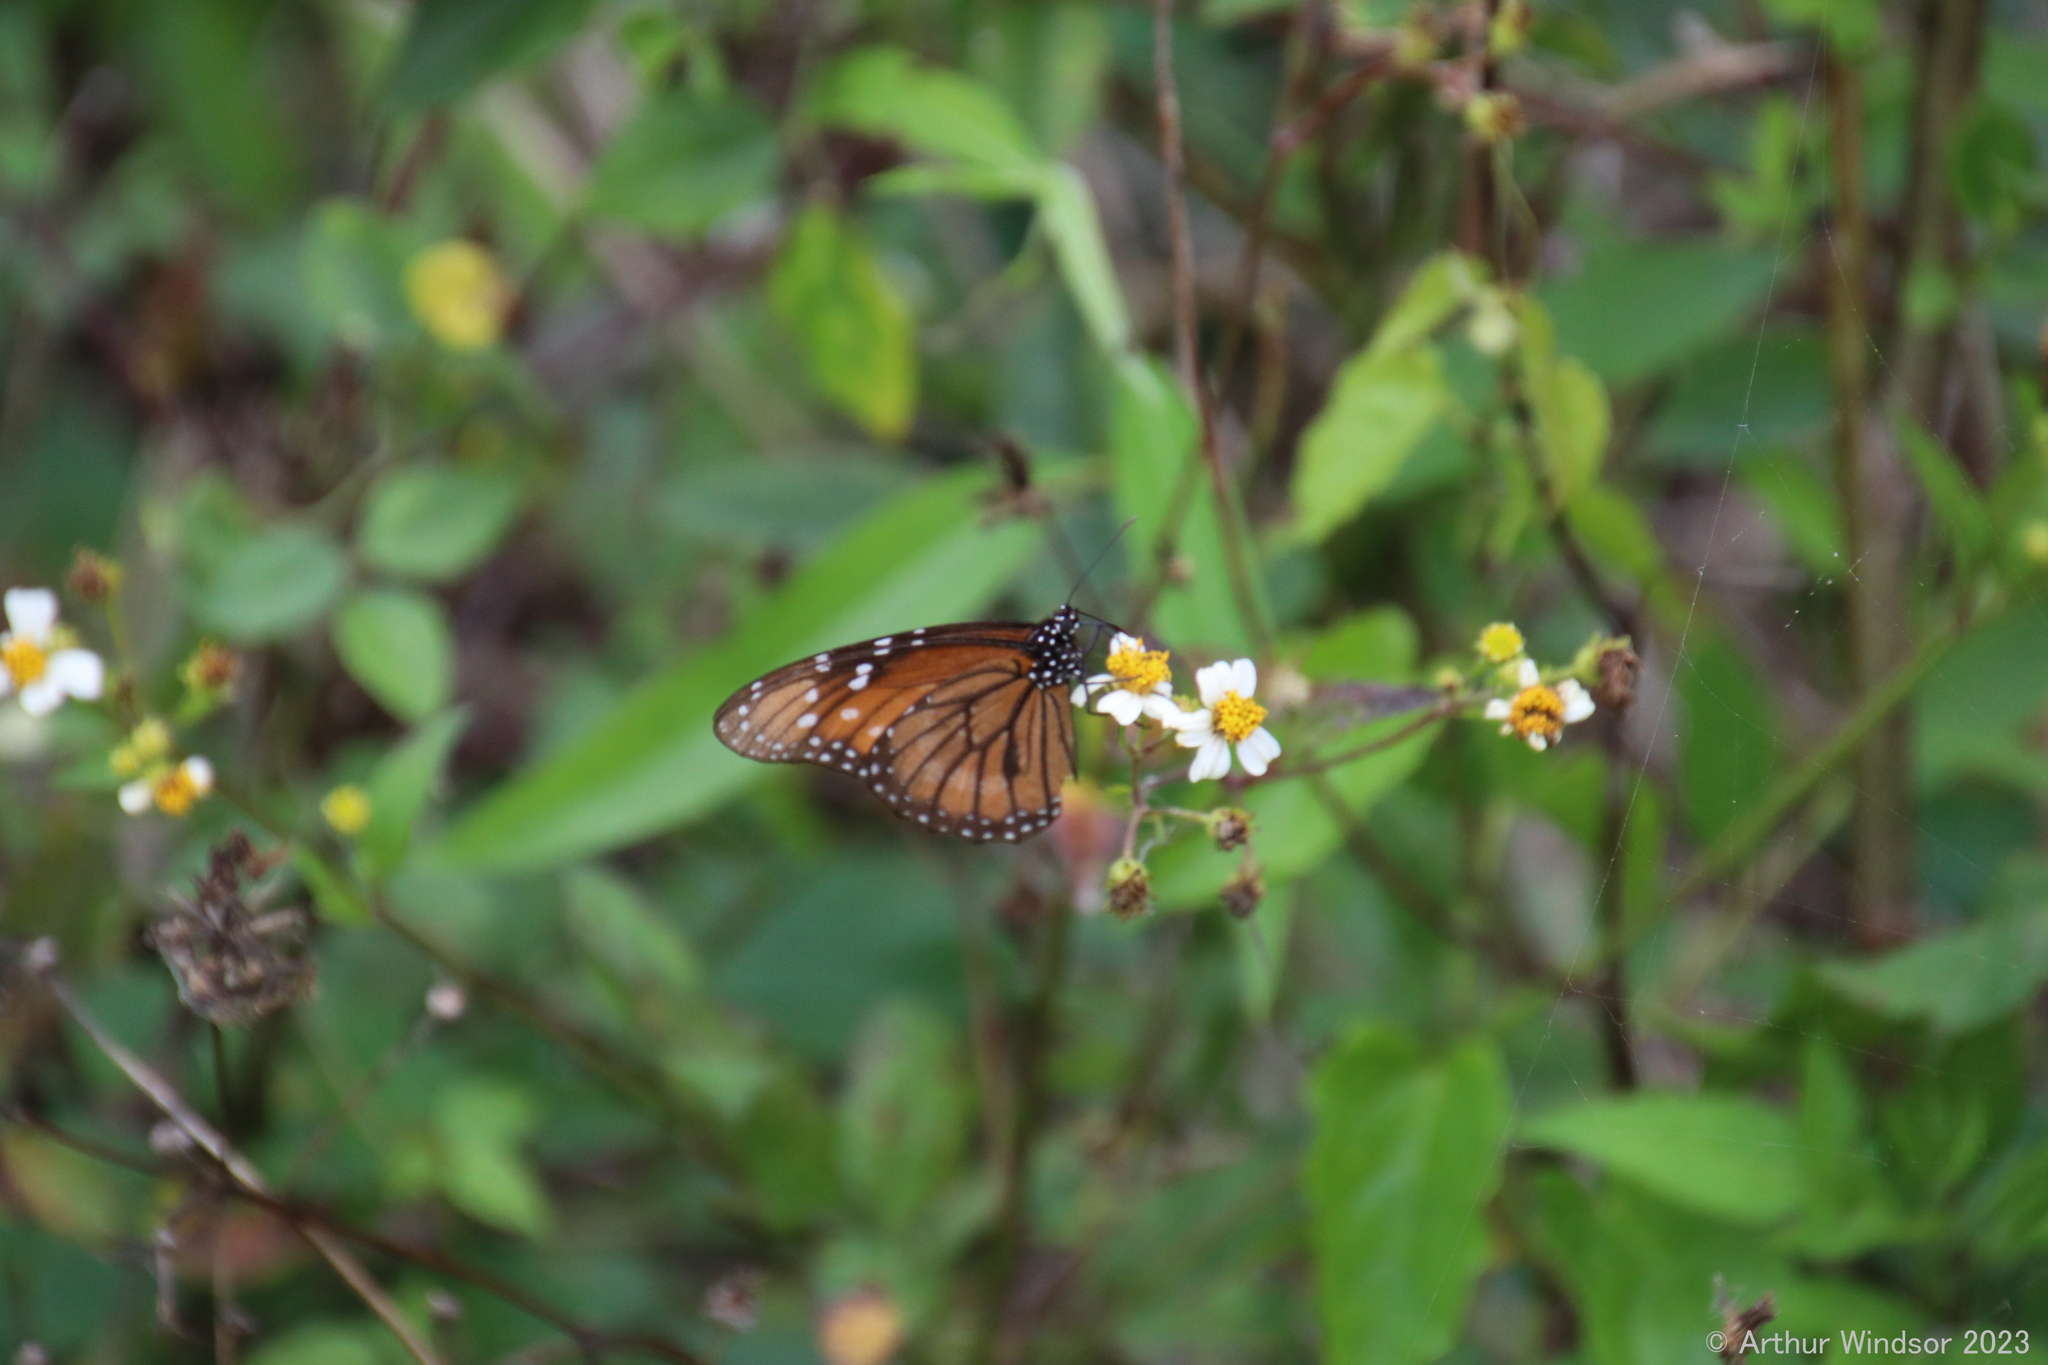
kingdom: Animalia
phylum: Arthropoda
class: Insecta
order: Lepidoptera
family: Nymphalidae
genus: Danaus
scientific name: Danaus eresimus
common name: Soldier
